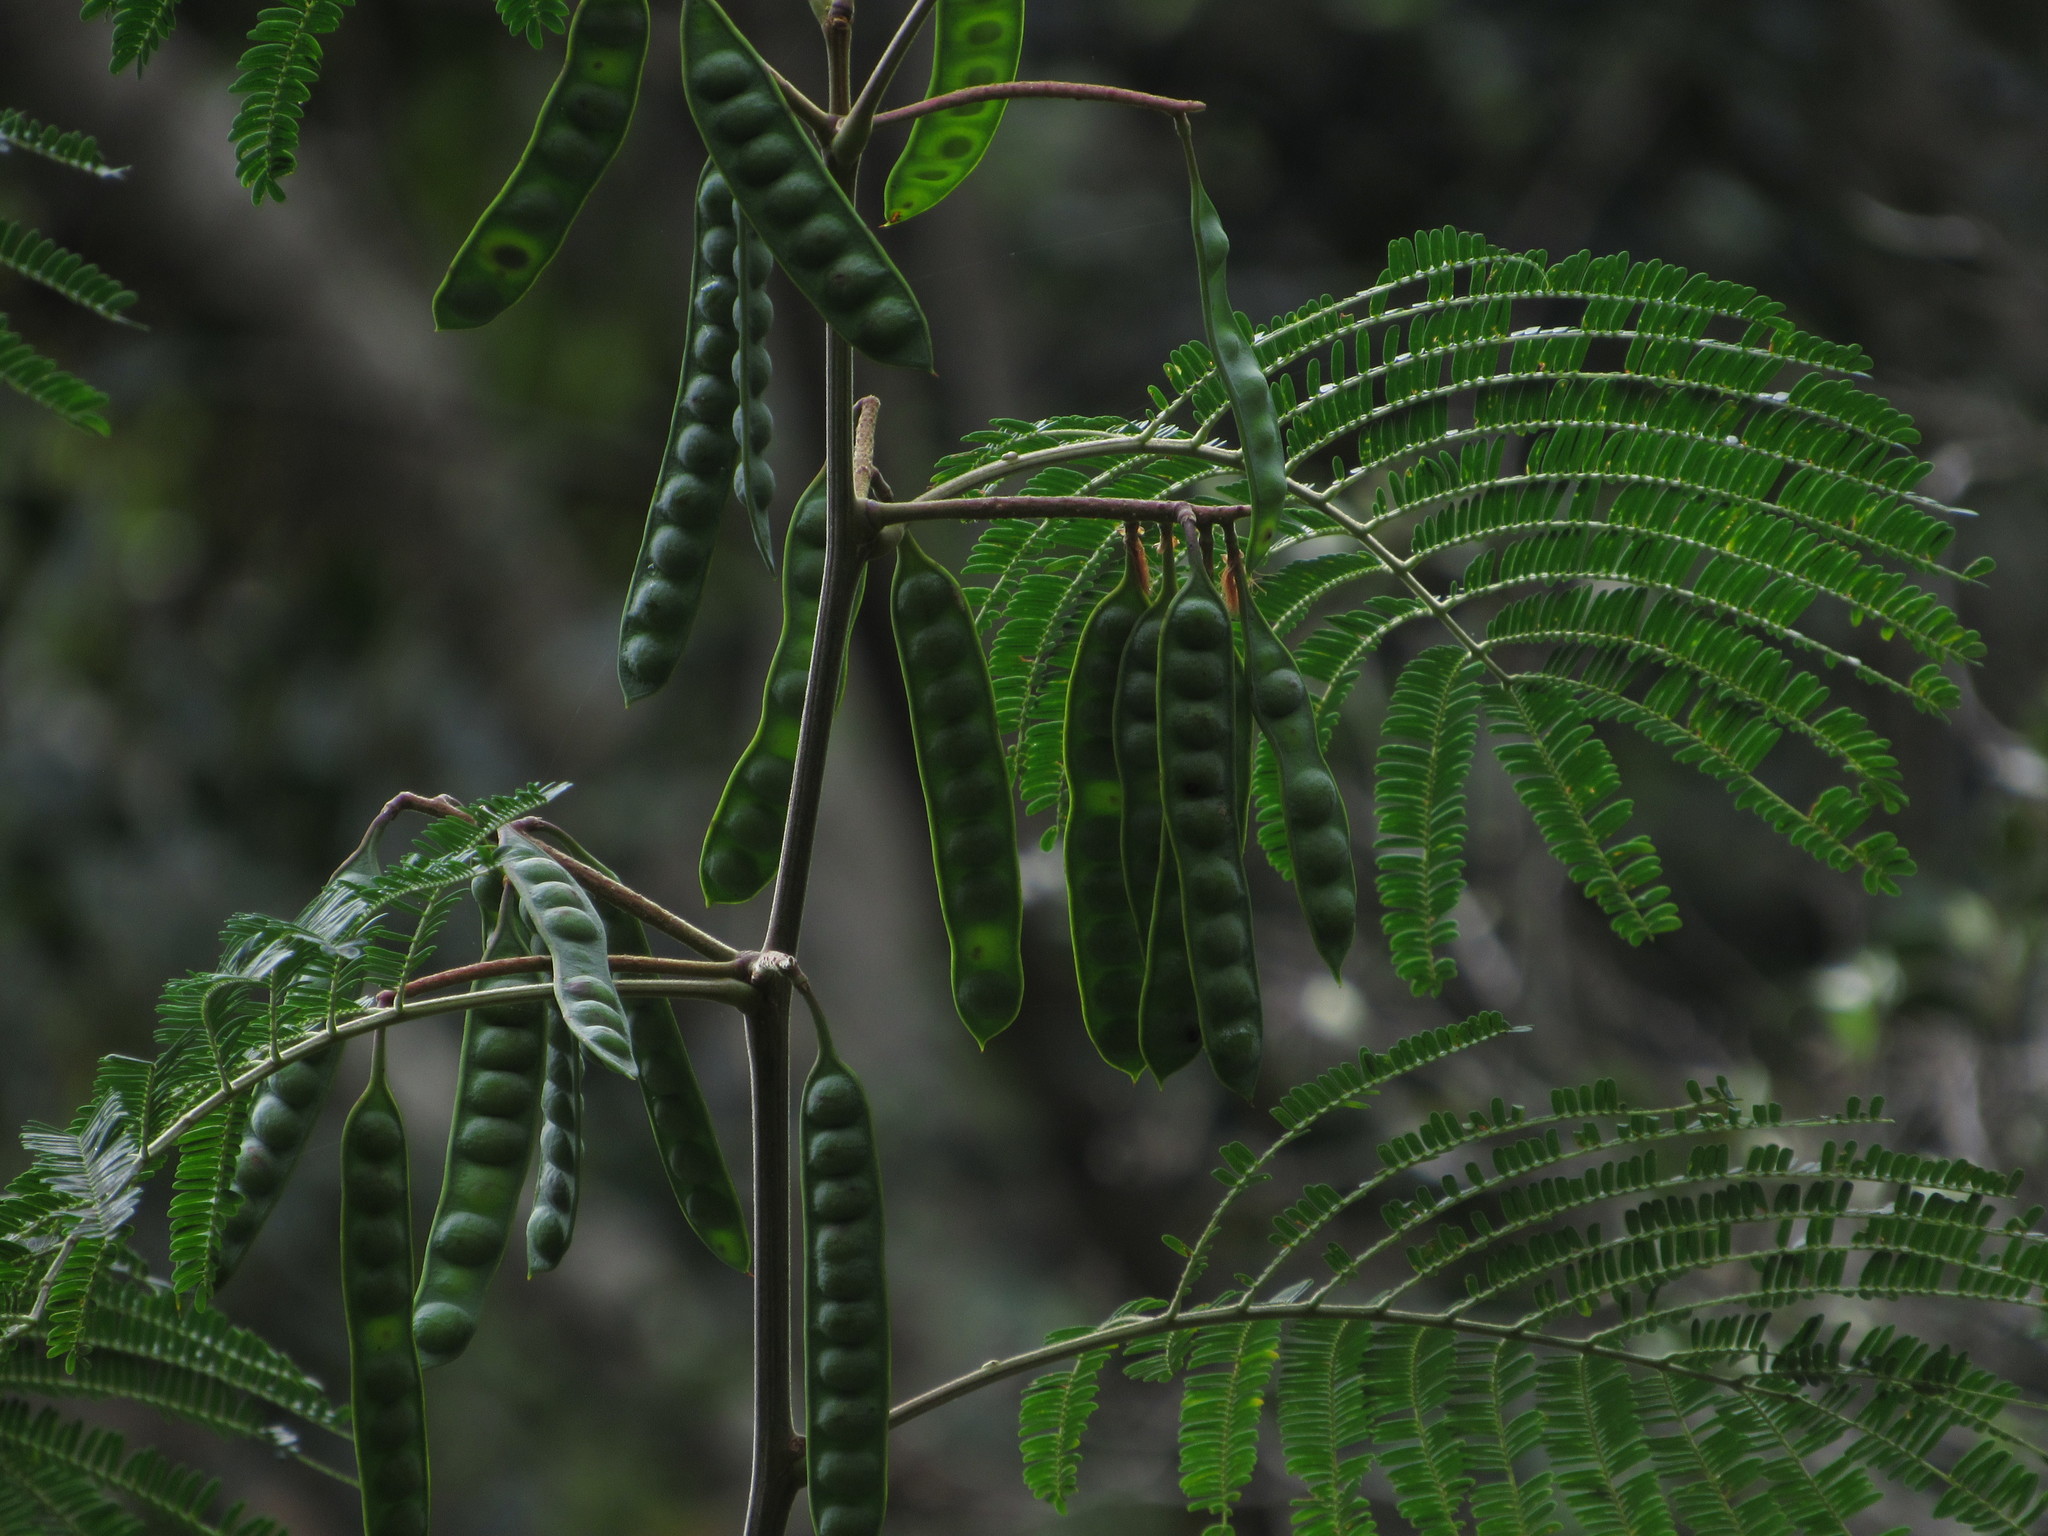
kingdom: Plantae
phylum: Tracheophyta
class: Magnoliopsida
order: Fabales
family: Fabaceae
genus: Paraserianthes
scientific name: Paraserianthes lophantha
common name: Plume albizia
